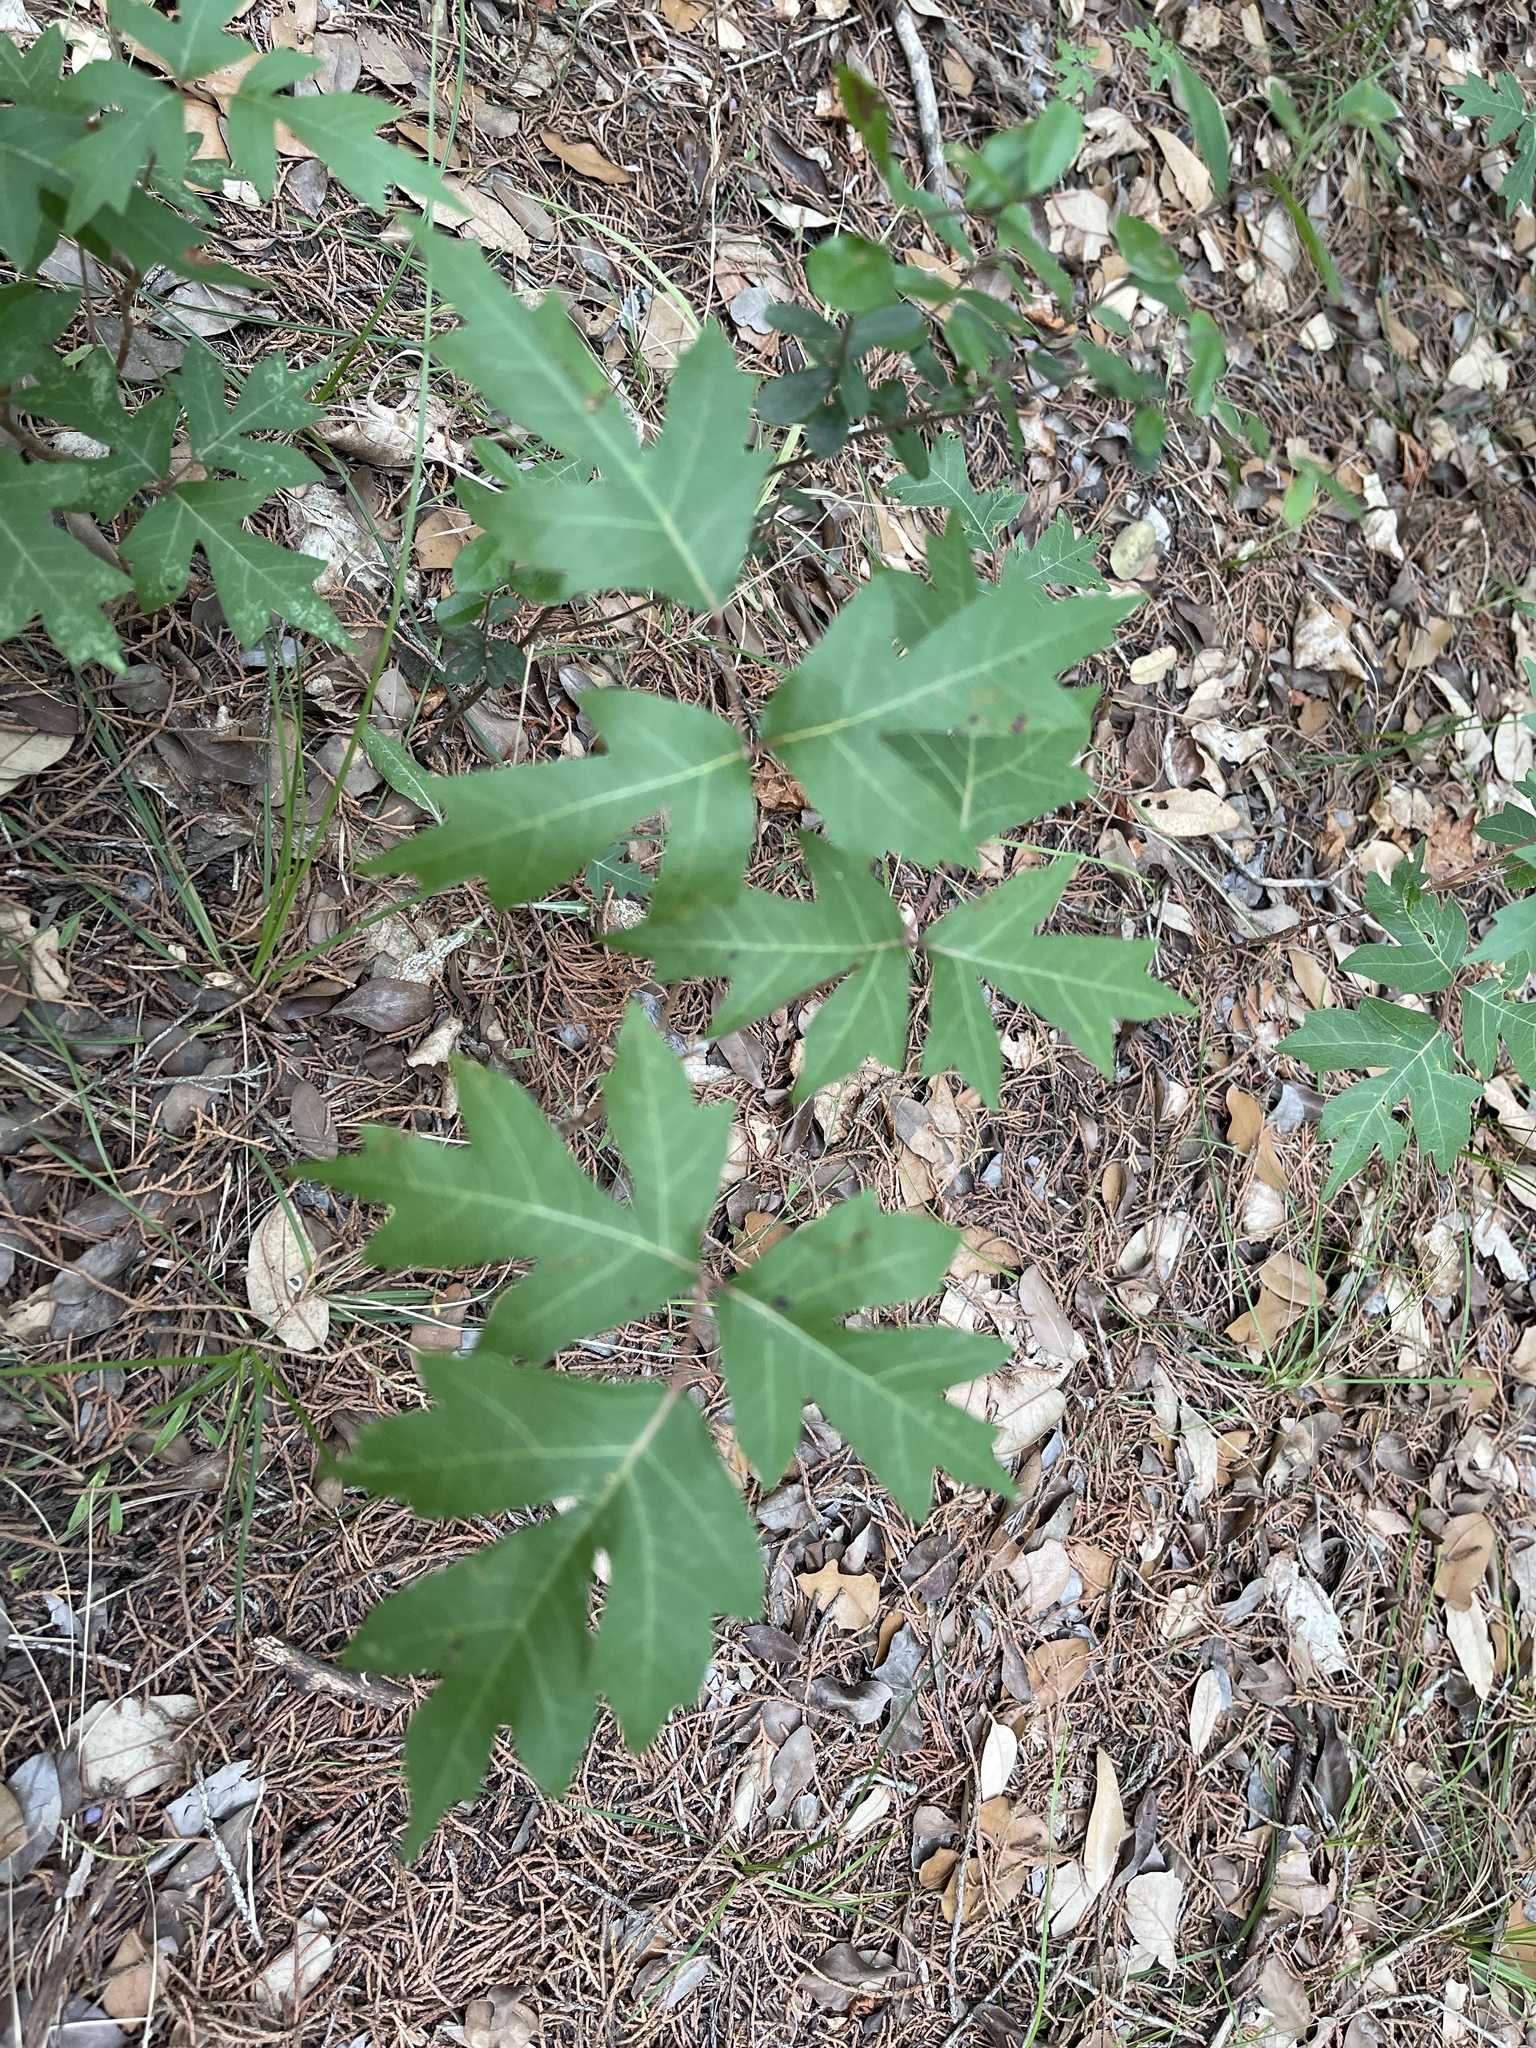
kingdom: Plantae
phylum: Tracheophyta
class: Magnoliopsida
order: Sapindales
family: Anacardiaceae
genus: Toxicodendron
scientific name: Toxicodendron radicans
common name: Poison ivy
